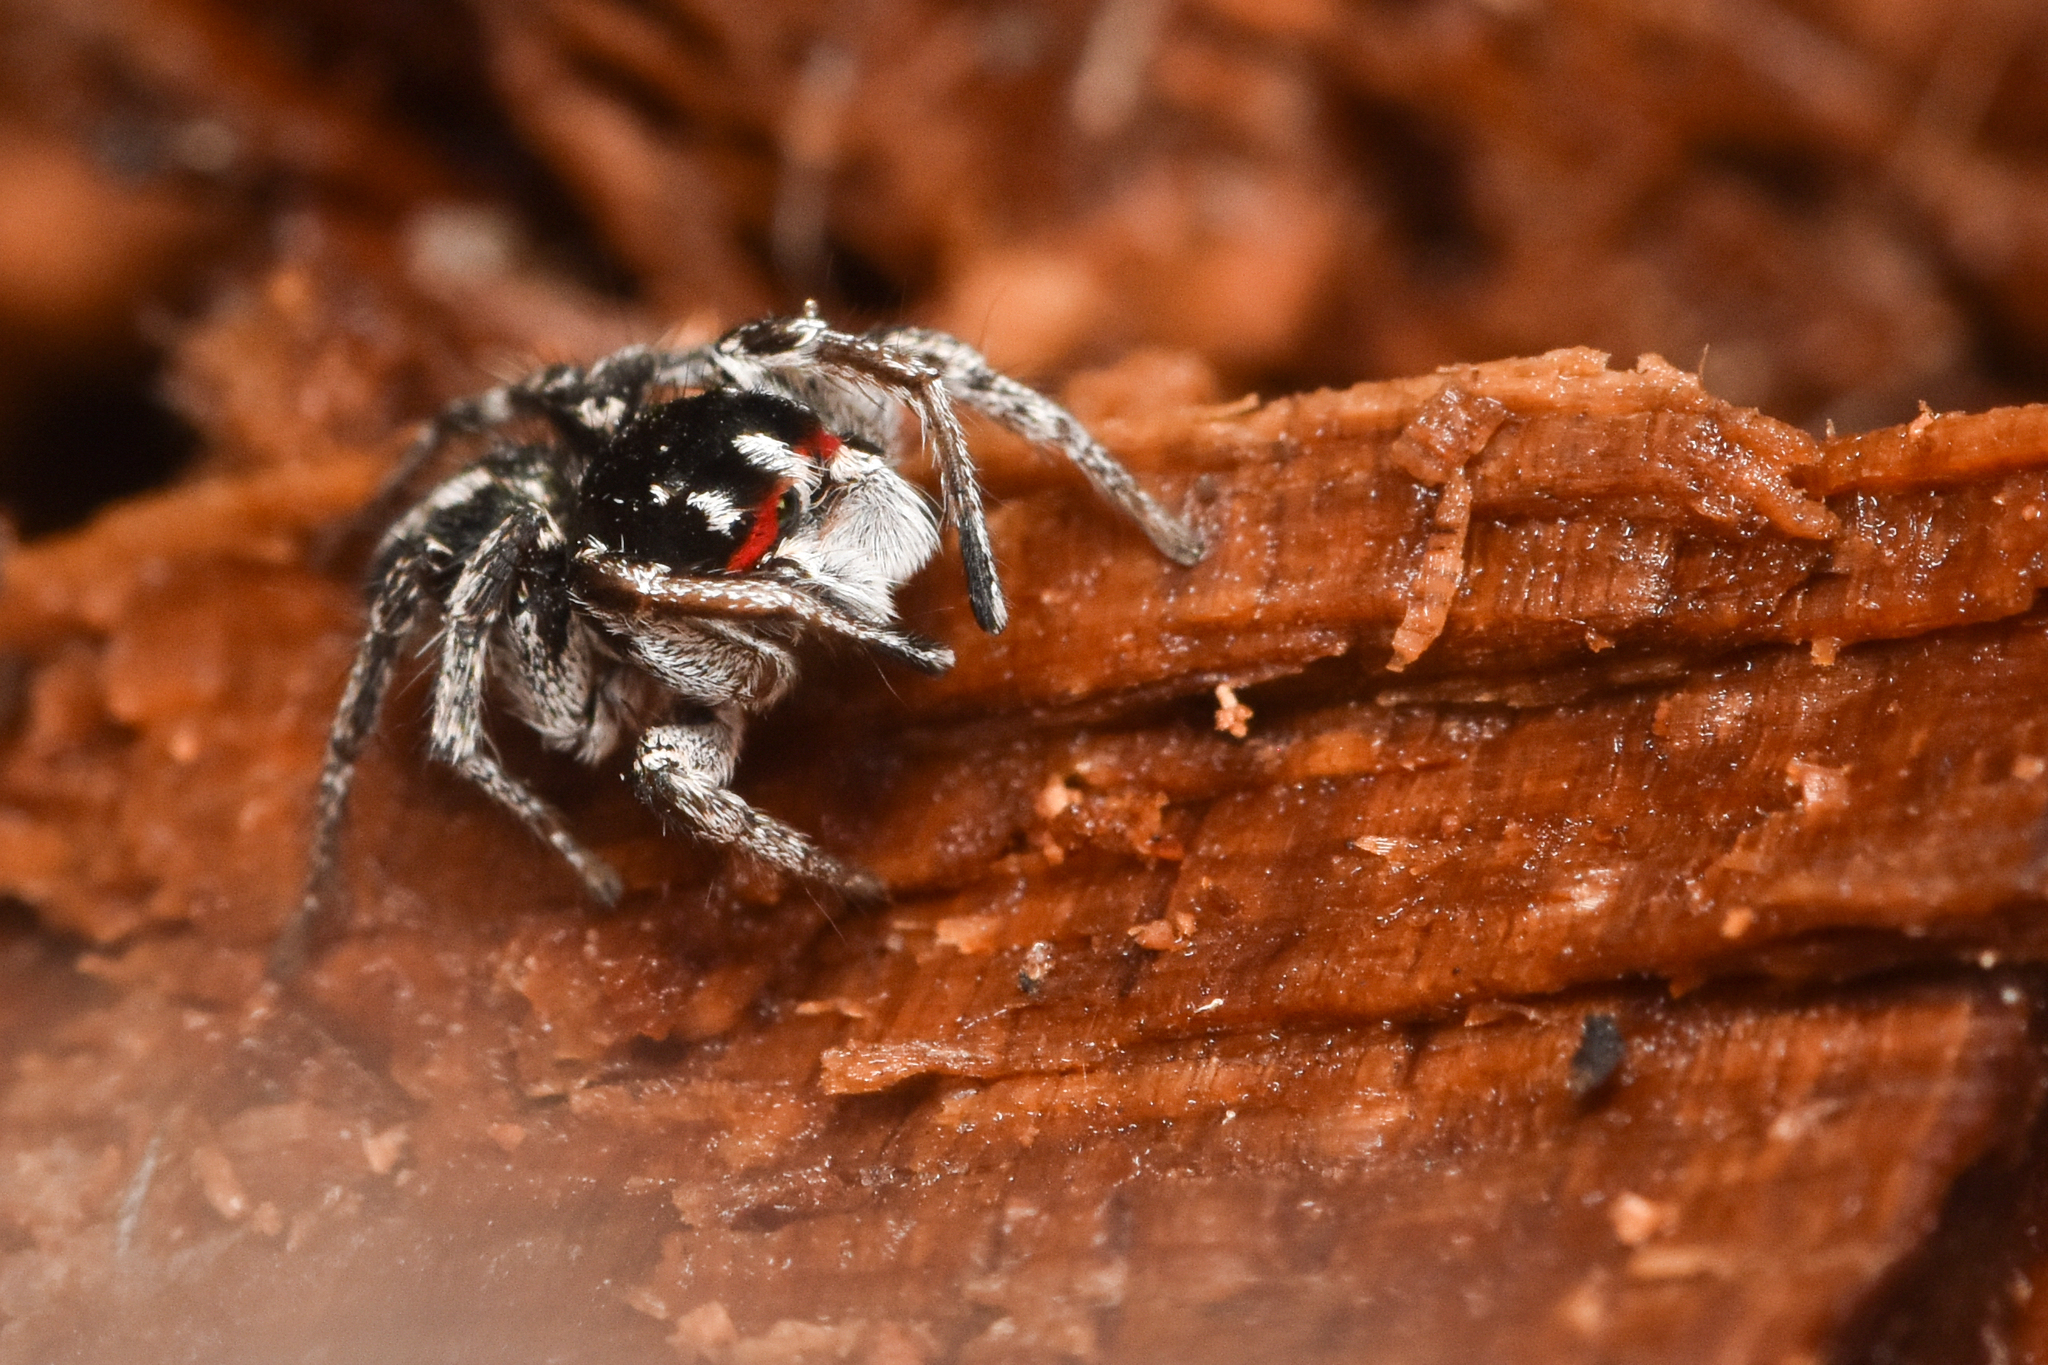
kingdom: Animalia
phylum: Arthropoda
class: Arachnida
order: Araneae
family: Salticidae
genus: Habronattus
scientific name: Habronattus sansoni
